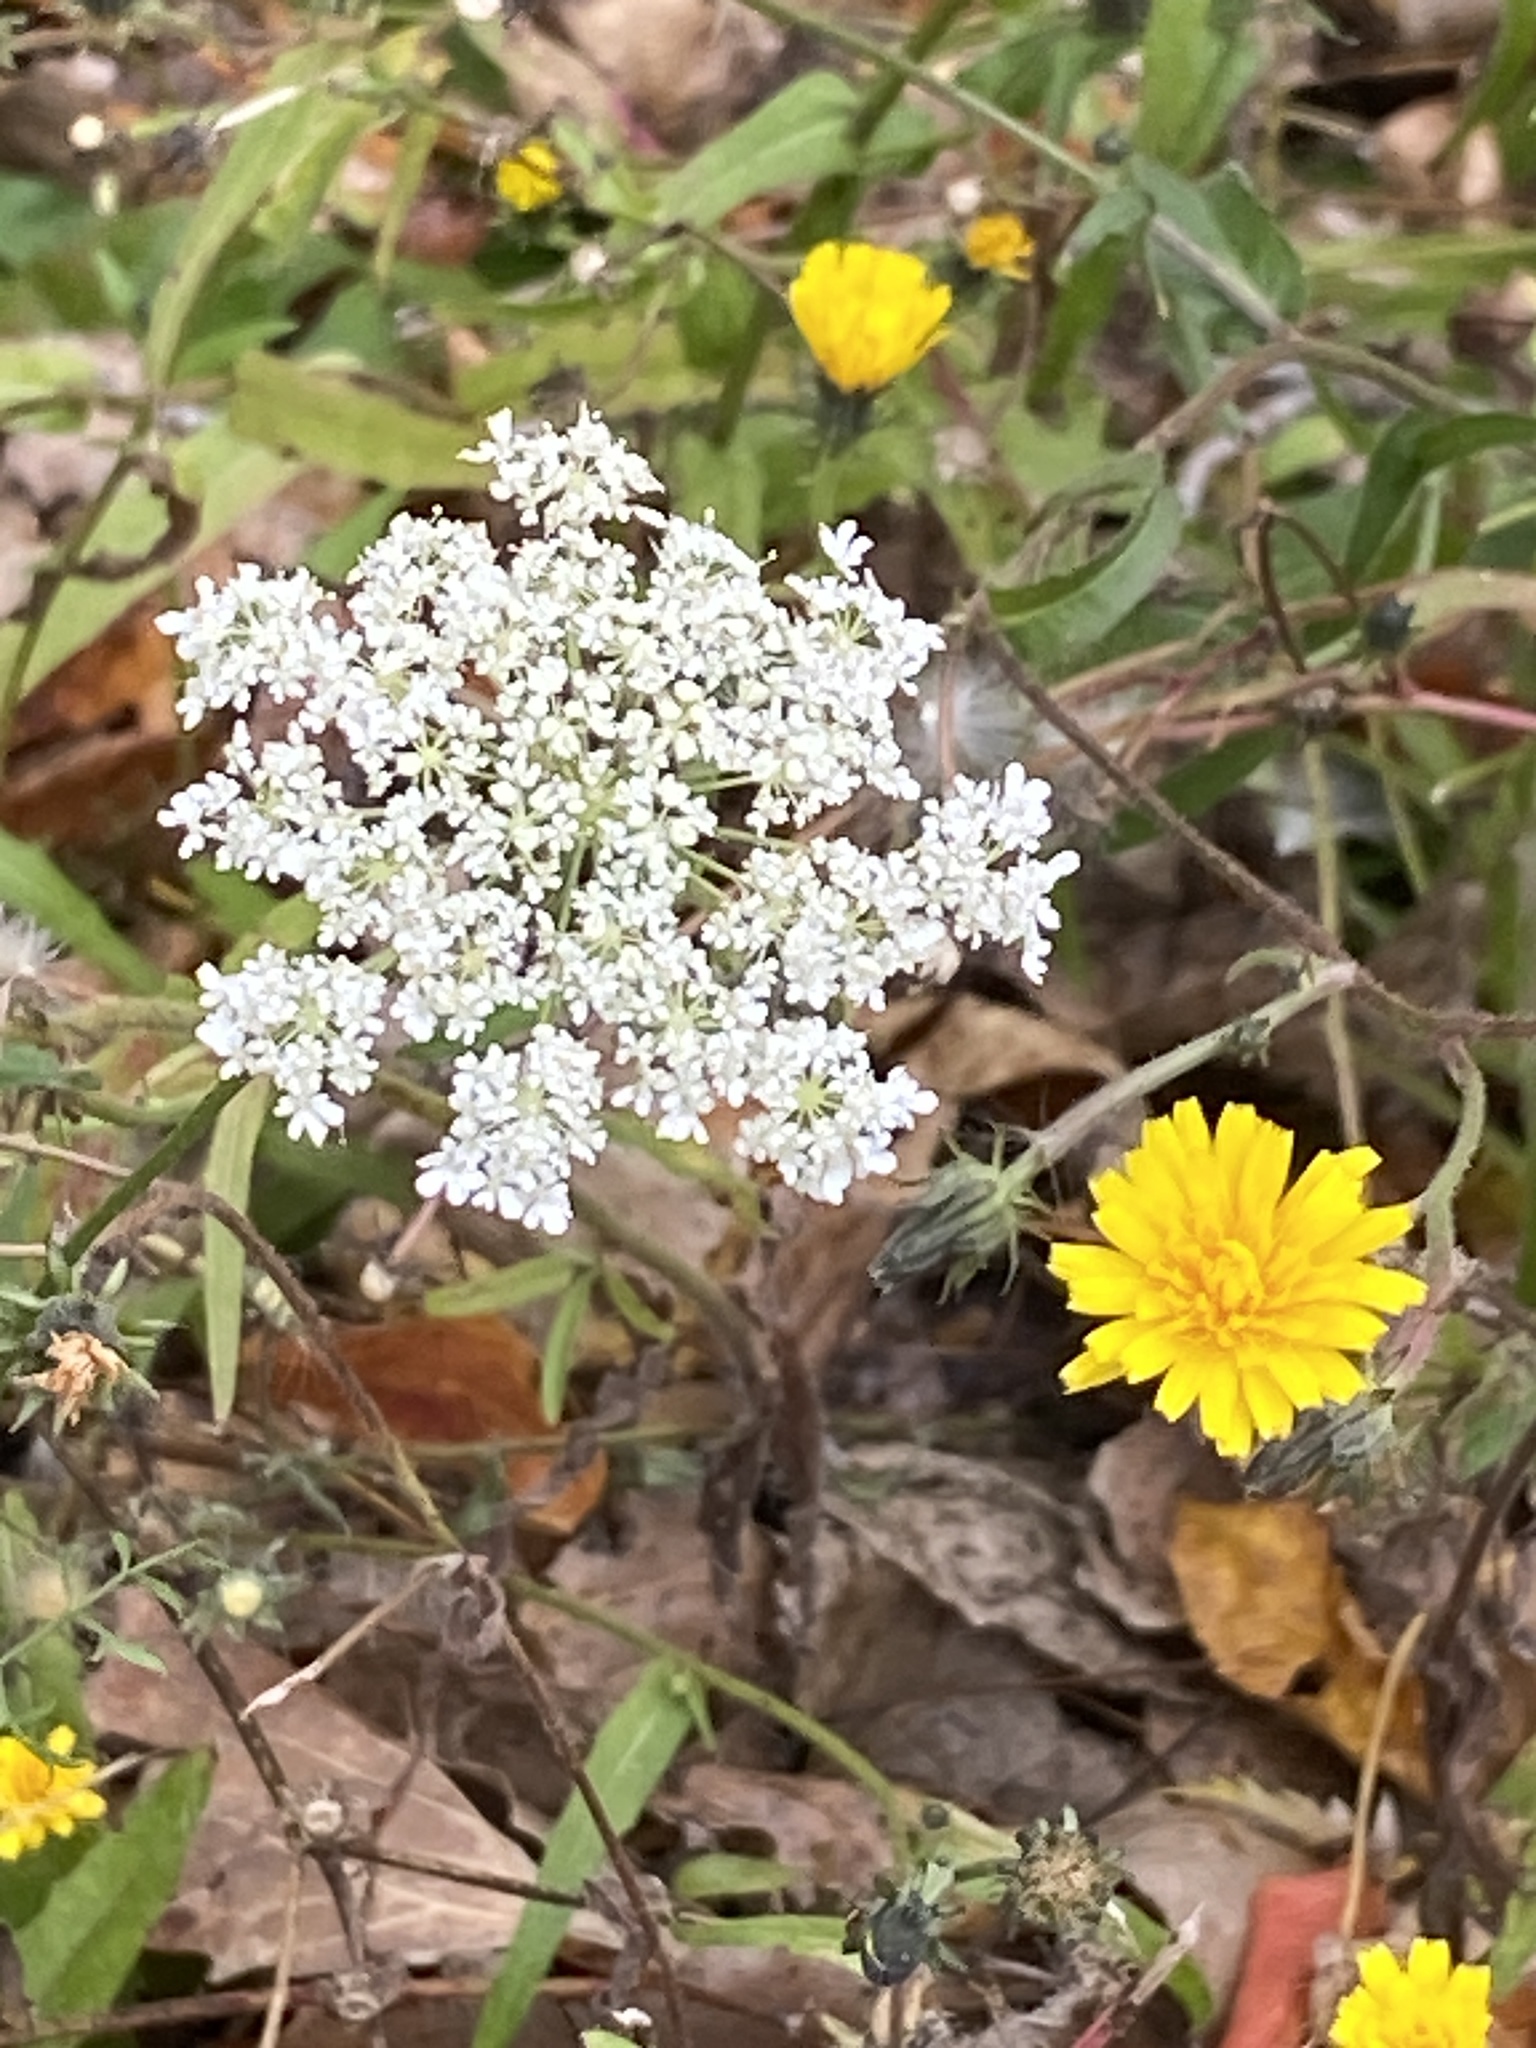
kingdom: Plantae
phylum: Tracheophyta
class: Magnoliopsida
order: Apiales
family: Apiaceae
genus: Daucus
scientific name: Daucus carota
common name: Wild carrot
